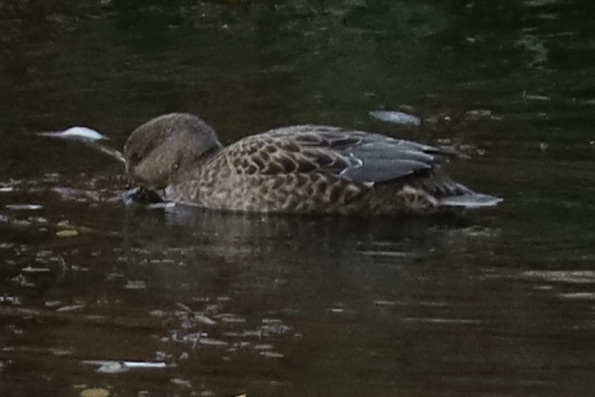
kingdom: Animalia
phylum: Chordata
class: Aves
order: Anseriformes
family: Anatidae
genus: Mareca
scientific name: Mareca strepera
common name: Gadwall
